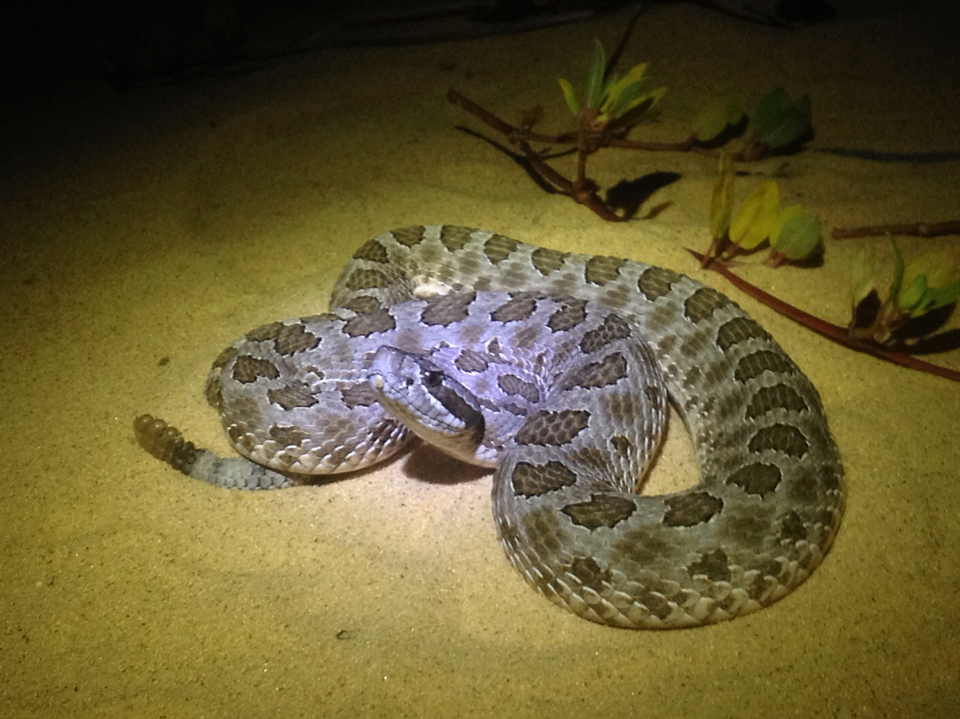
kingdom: Animalia
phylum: Chordata
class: Squamata
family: Viperidae
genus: Sistrurus
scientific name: Sistrurus tergeminus
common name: Desert massasauga [edwardsi]
